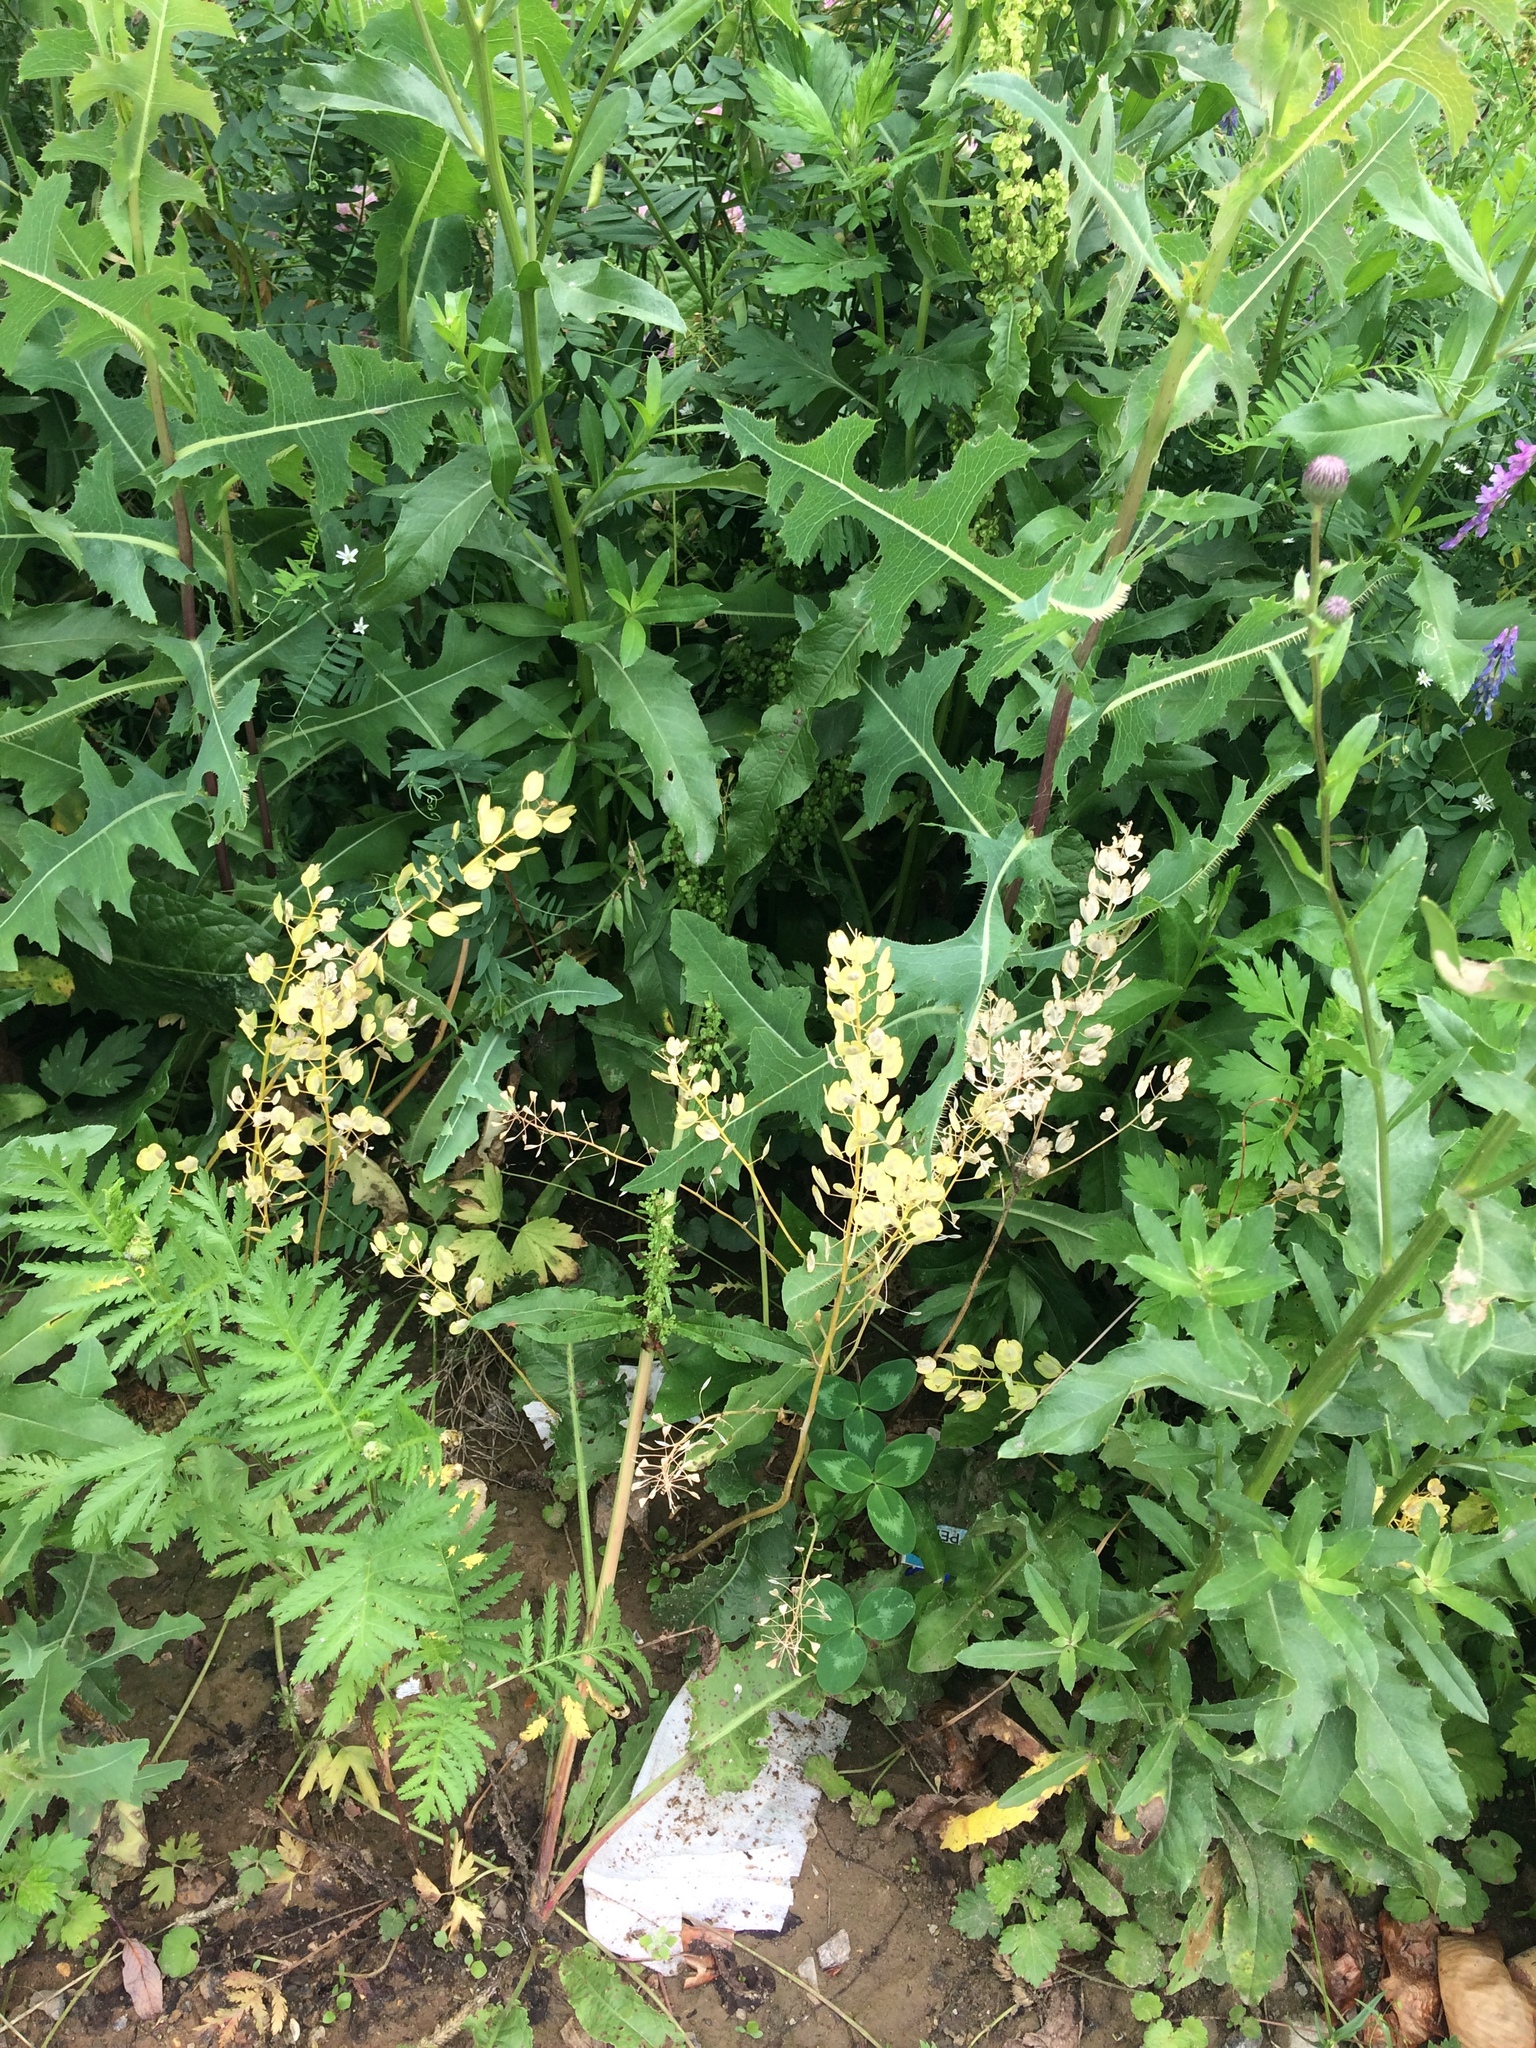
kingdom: Plantae
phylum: Tracheophyta
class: Magnoliopsida
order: Brassicales
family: Brassicaceae
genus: Thlaspi
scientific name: Thlaspi arvense
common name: Field pennycress
